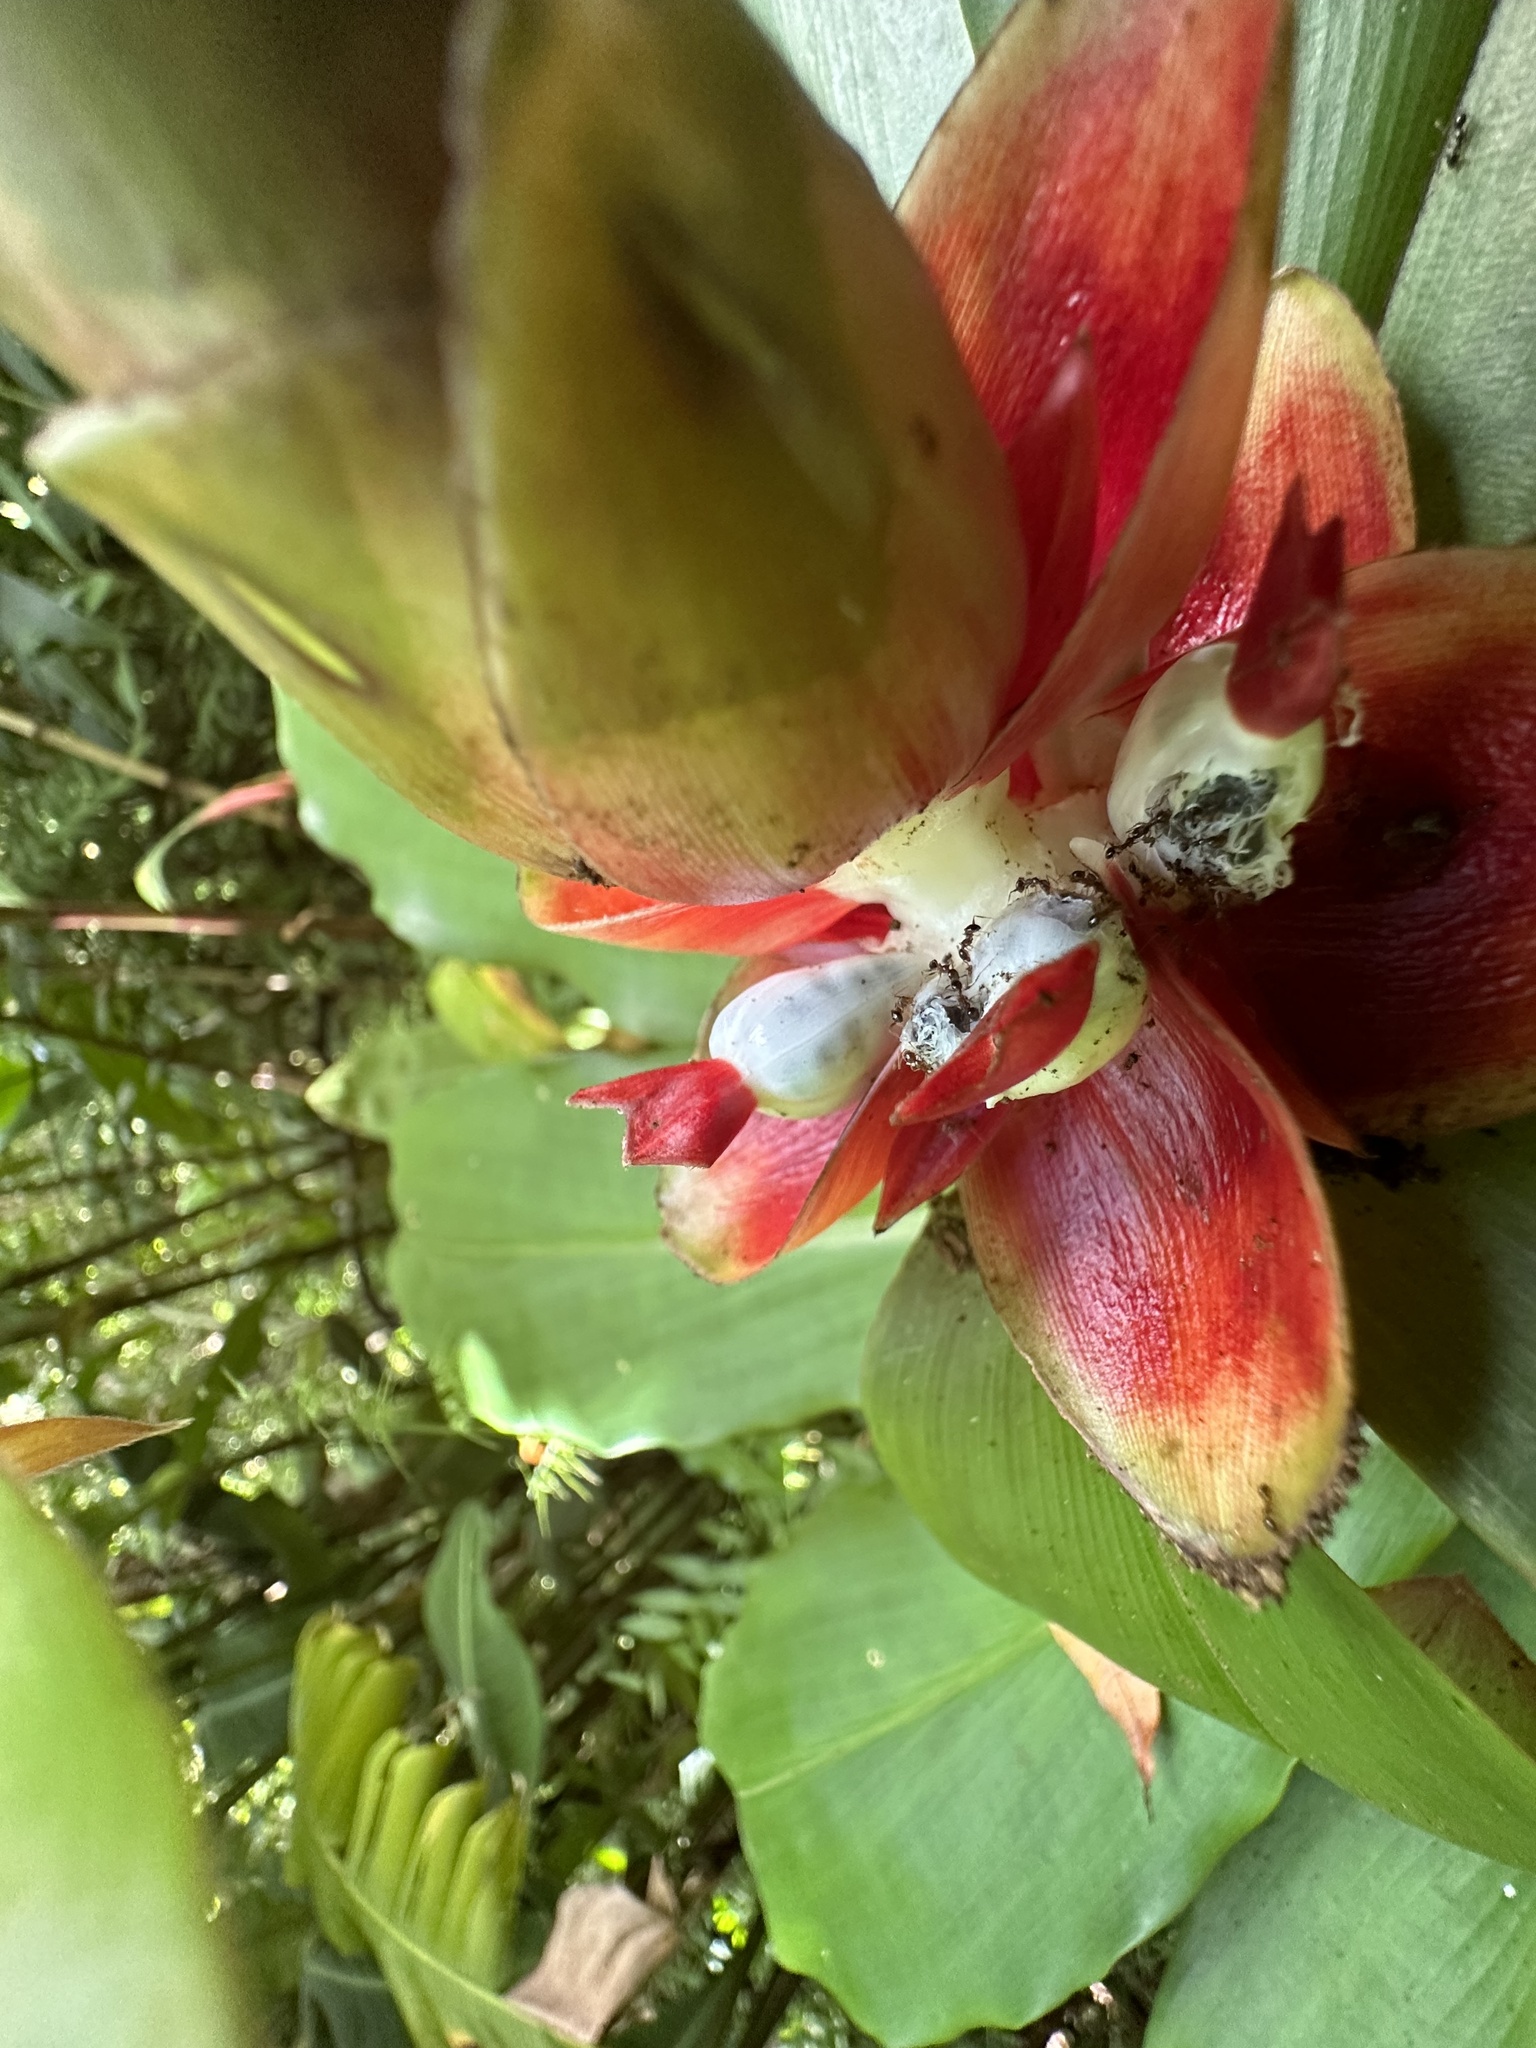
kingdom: Plantae
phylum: Tracheophyta
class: Liliopsida
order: Zingiberales
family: Costaceae
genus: Costus
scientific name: Costus pulverulentus
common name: Spiral ginger
